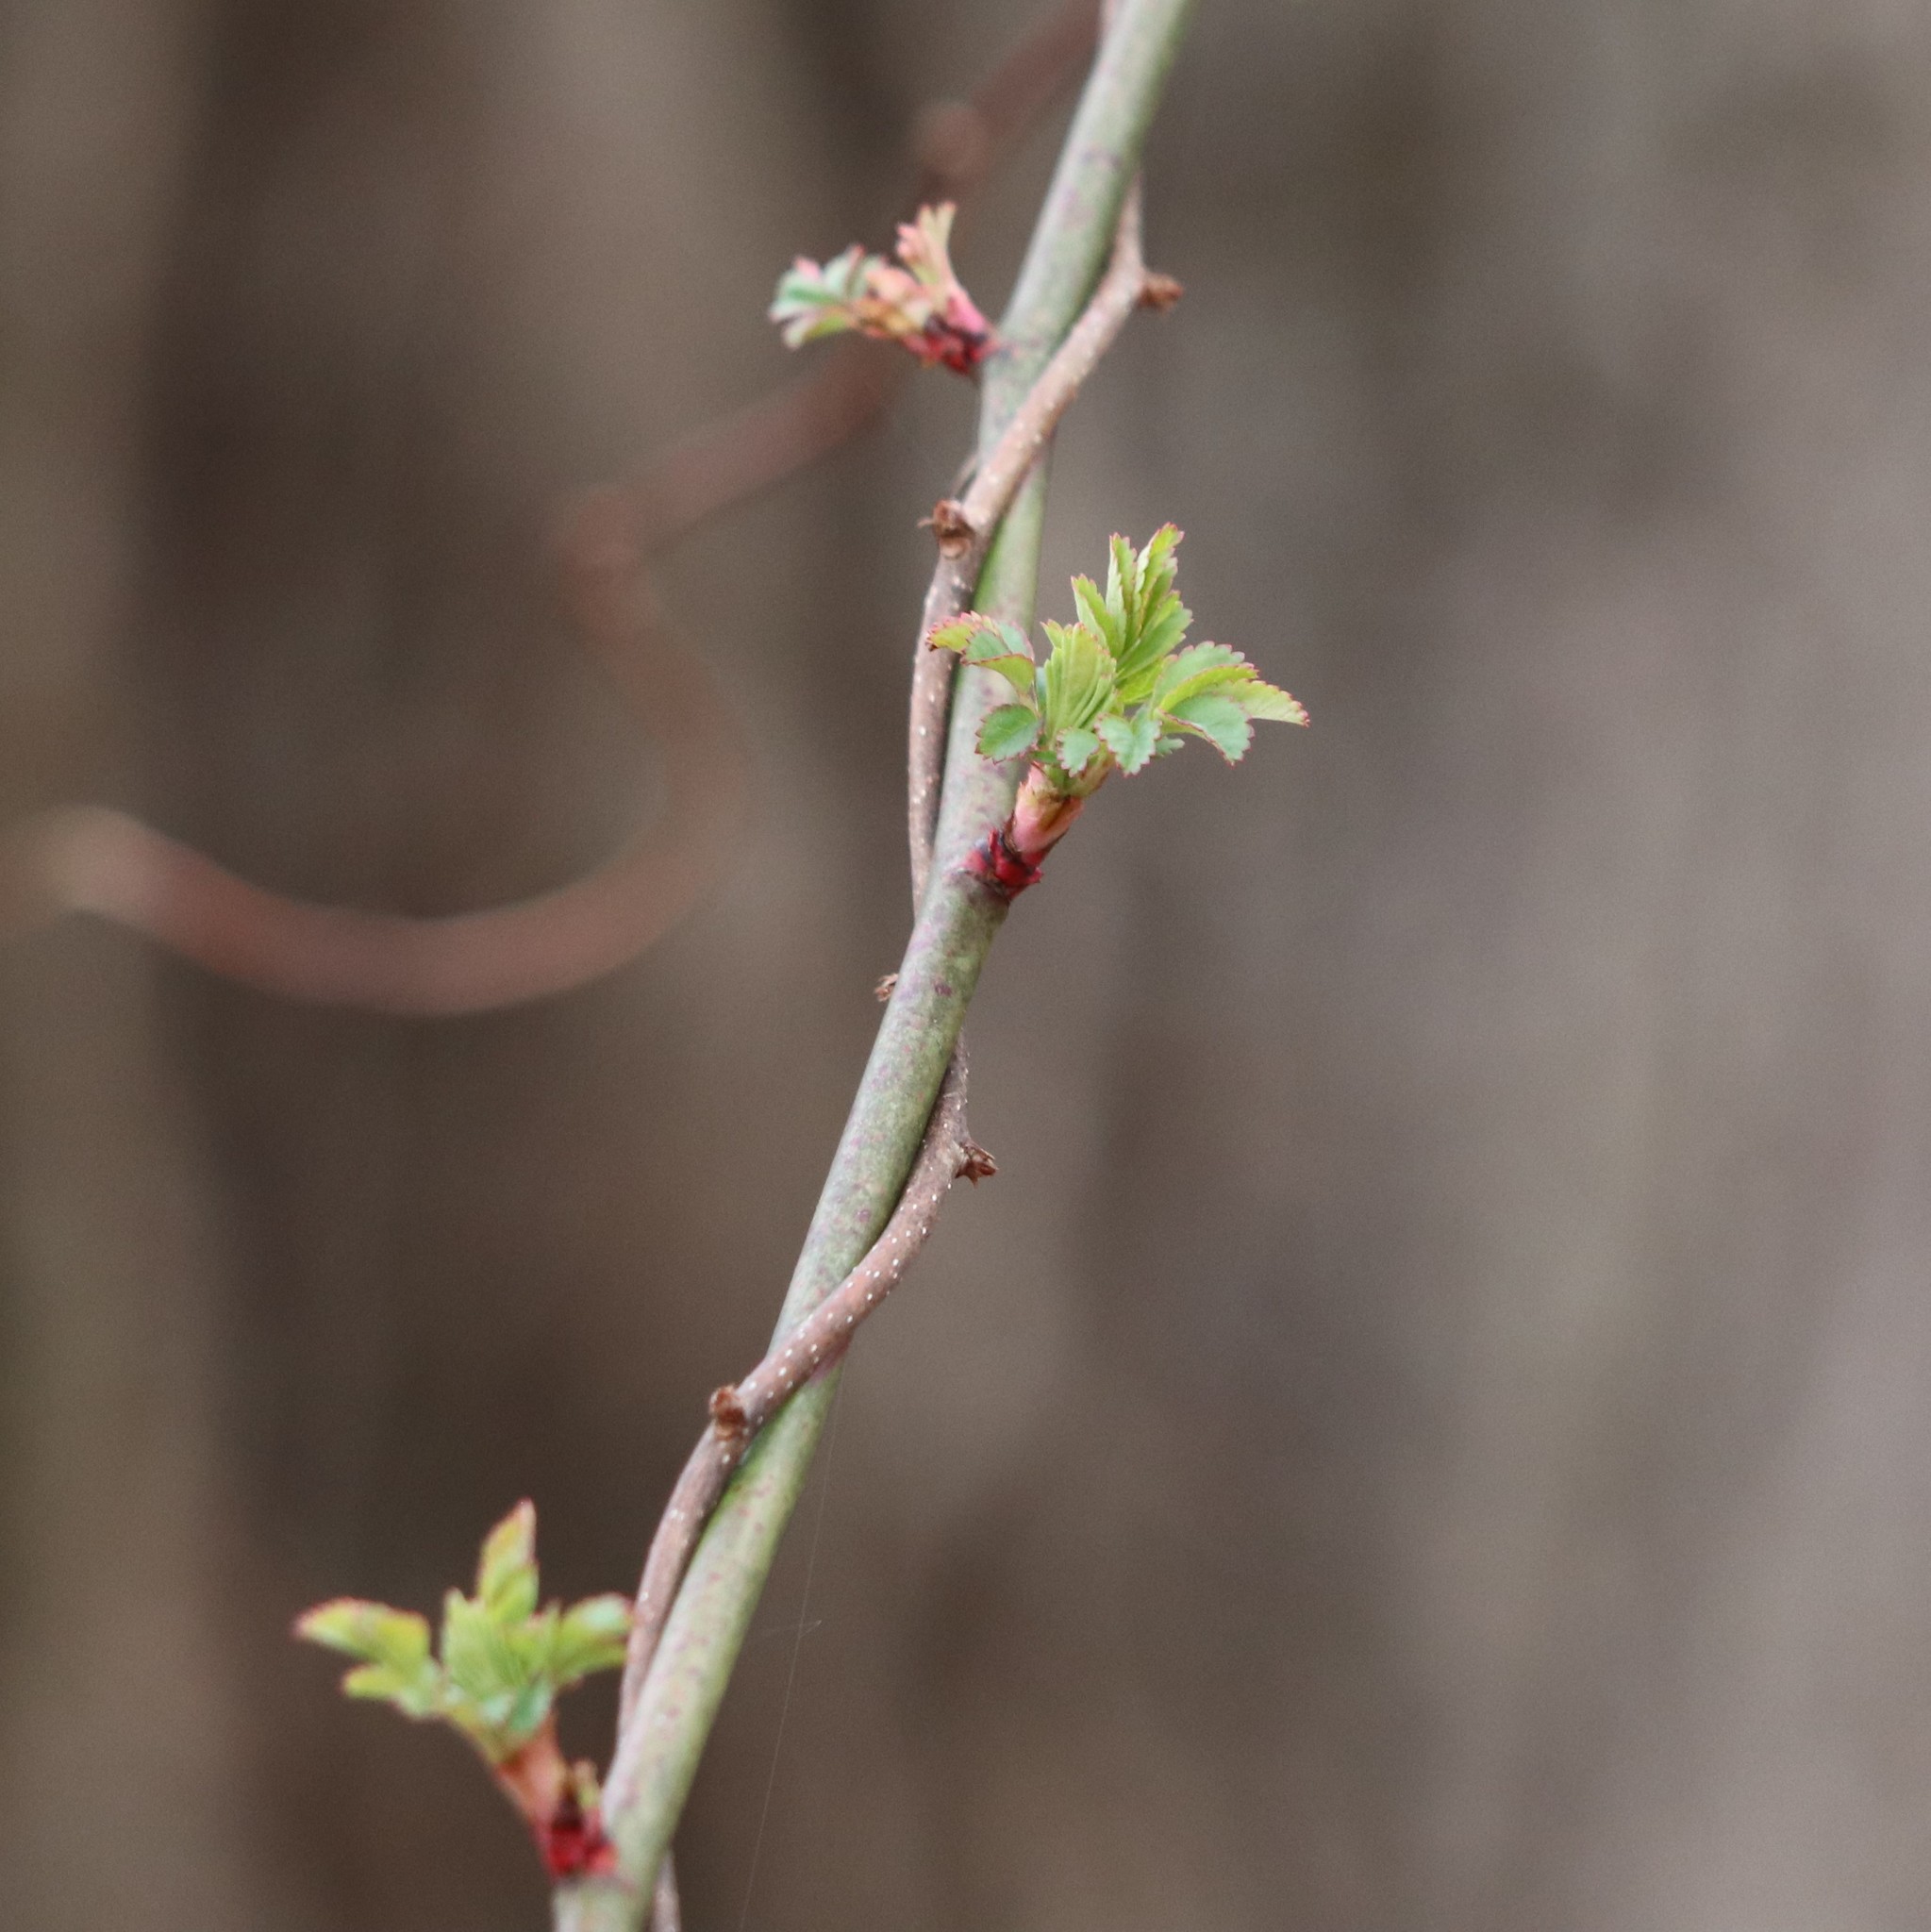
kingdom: Plantae
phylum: Tracheophyta
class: Magnoliopsida
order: Rosales
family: Rosaceae
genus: Rosa
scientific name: Rosa multiflora
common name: Multiflora rose
